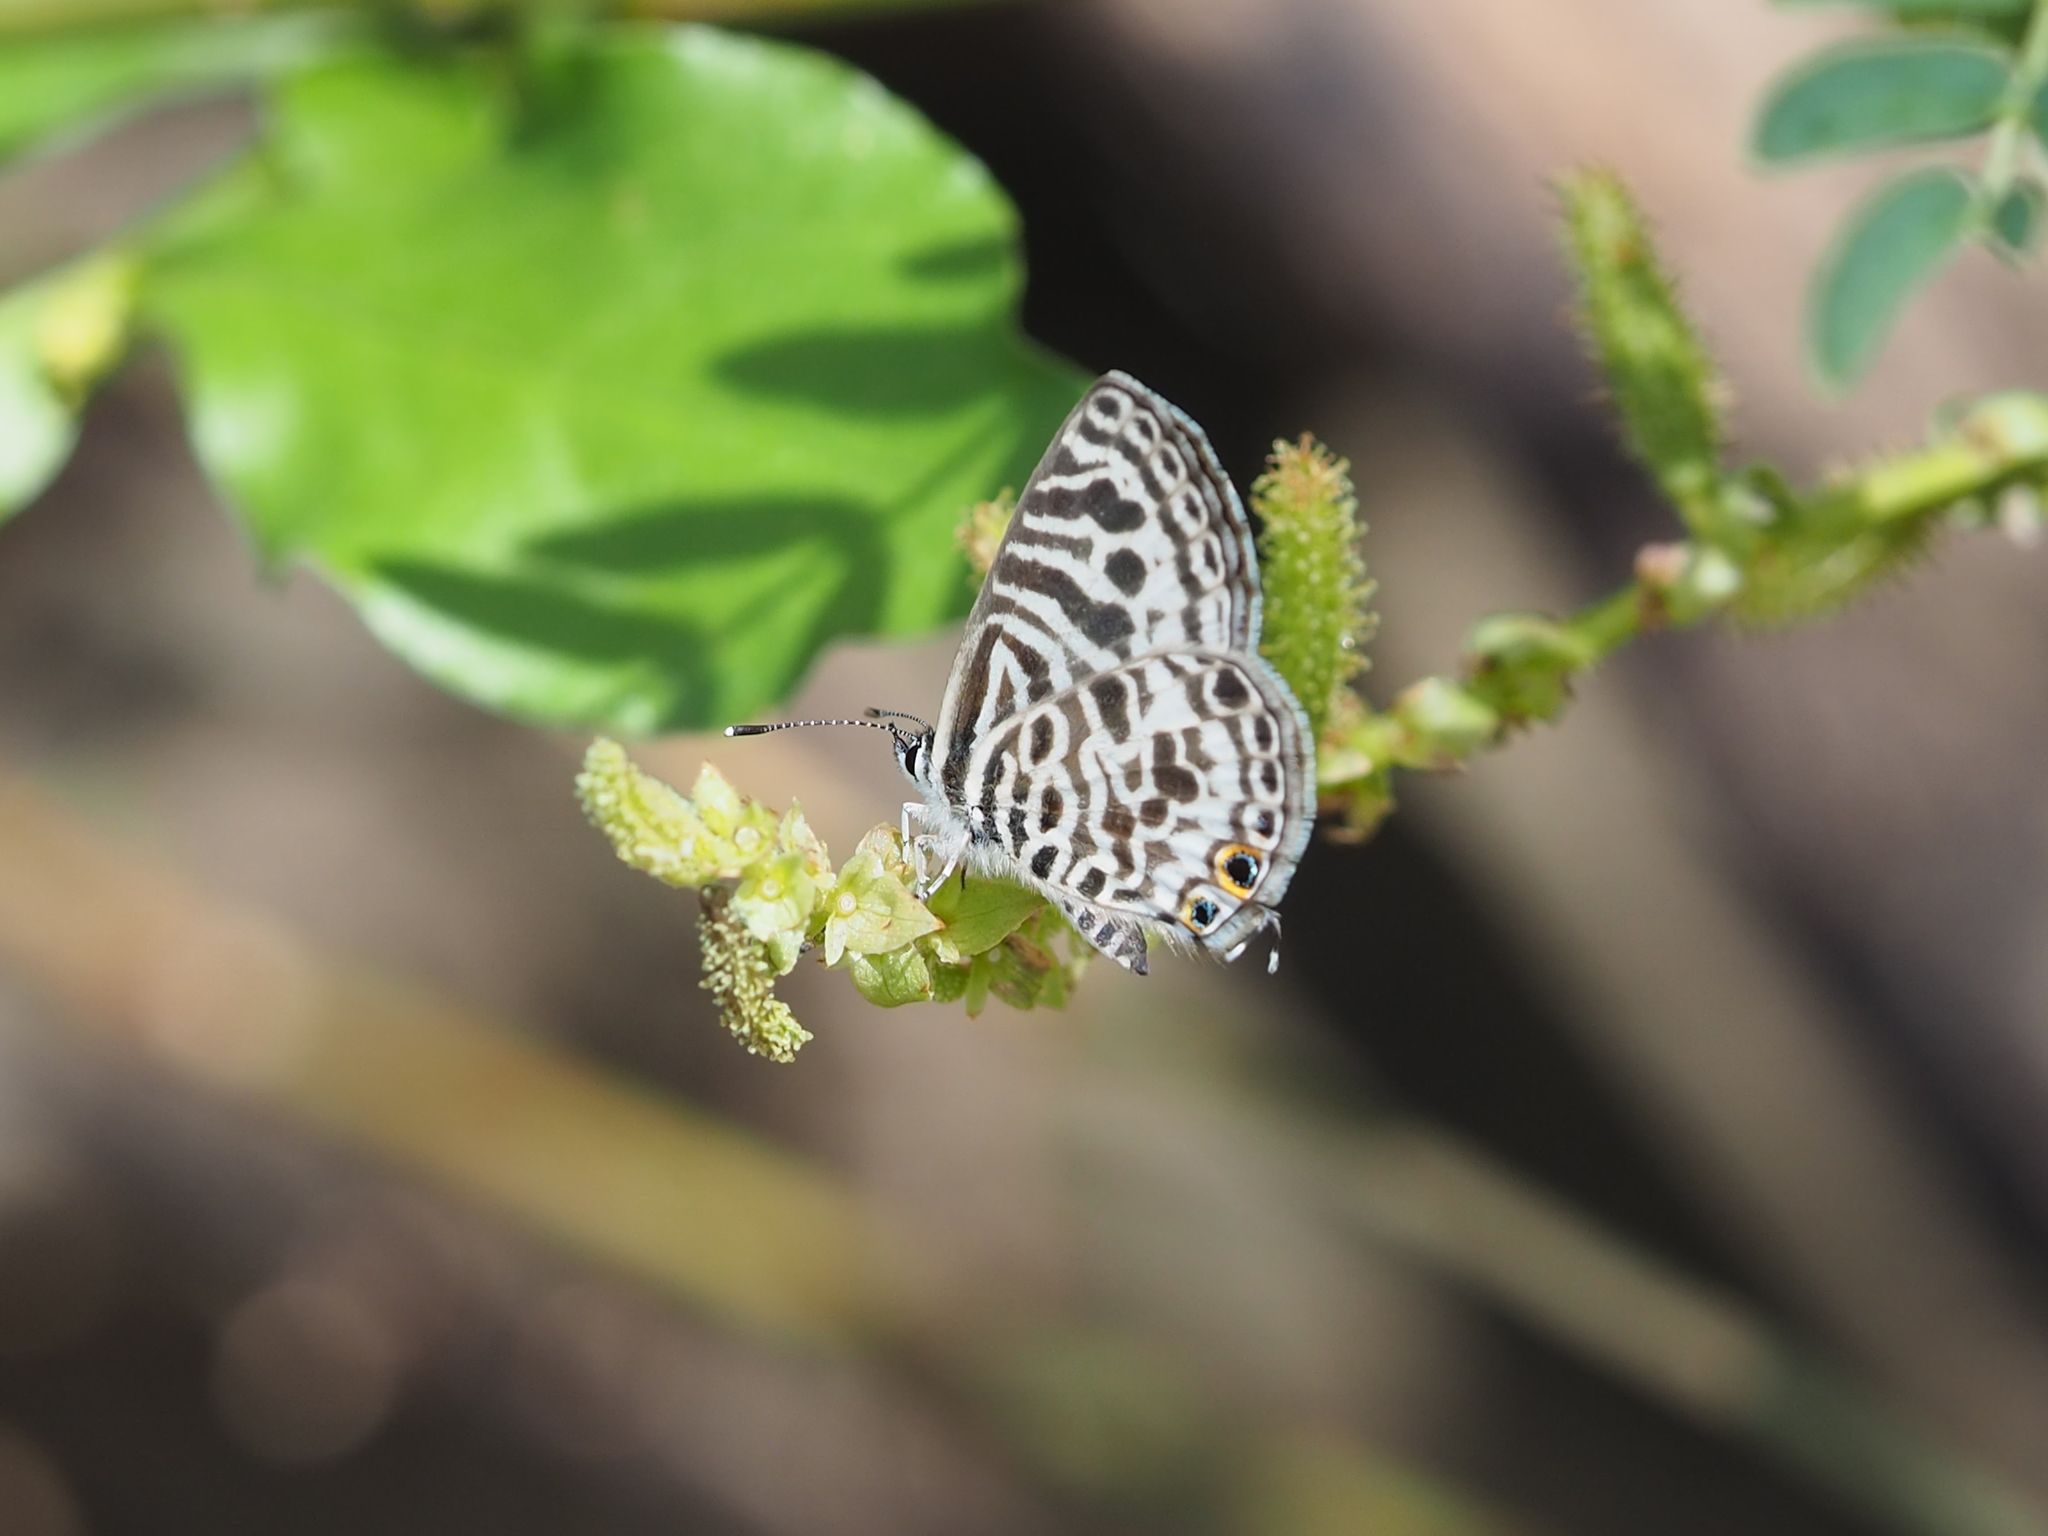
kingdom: Animalia
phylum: Arthropoda
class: Insecta
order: Lepidoptera
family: Lycaenidae
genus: Leptotes
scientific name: Leptotes plinius
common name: Zebra blue
